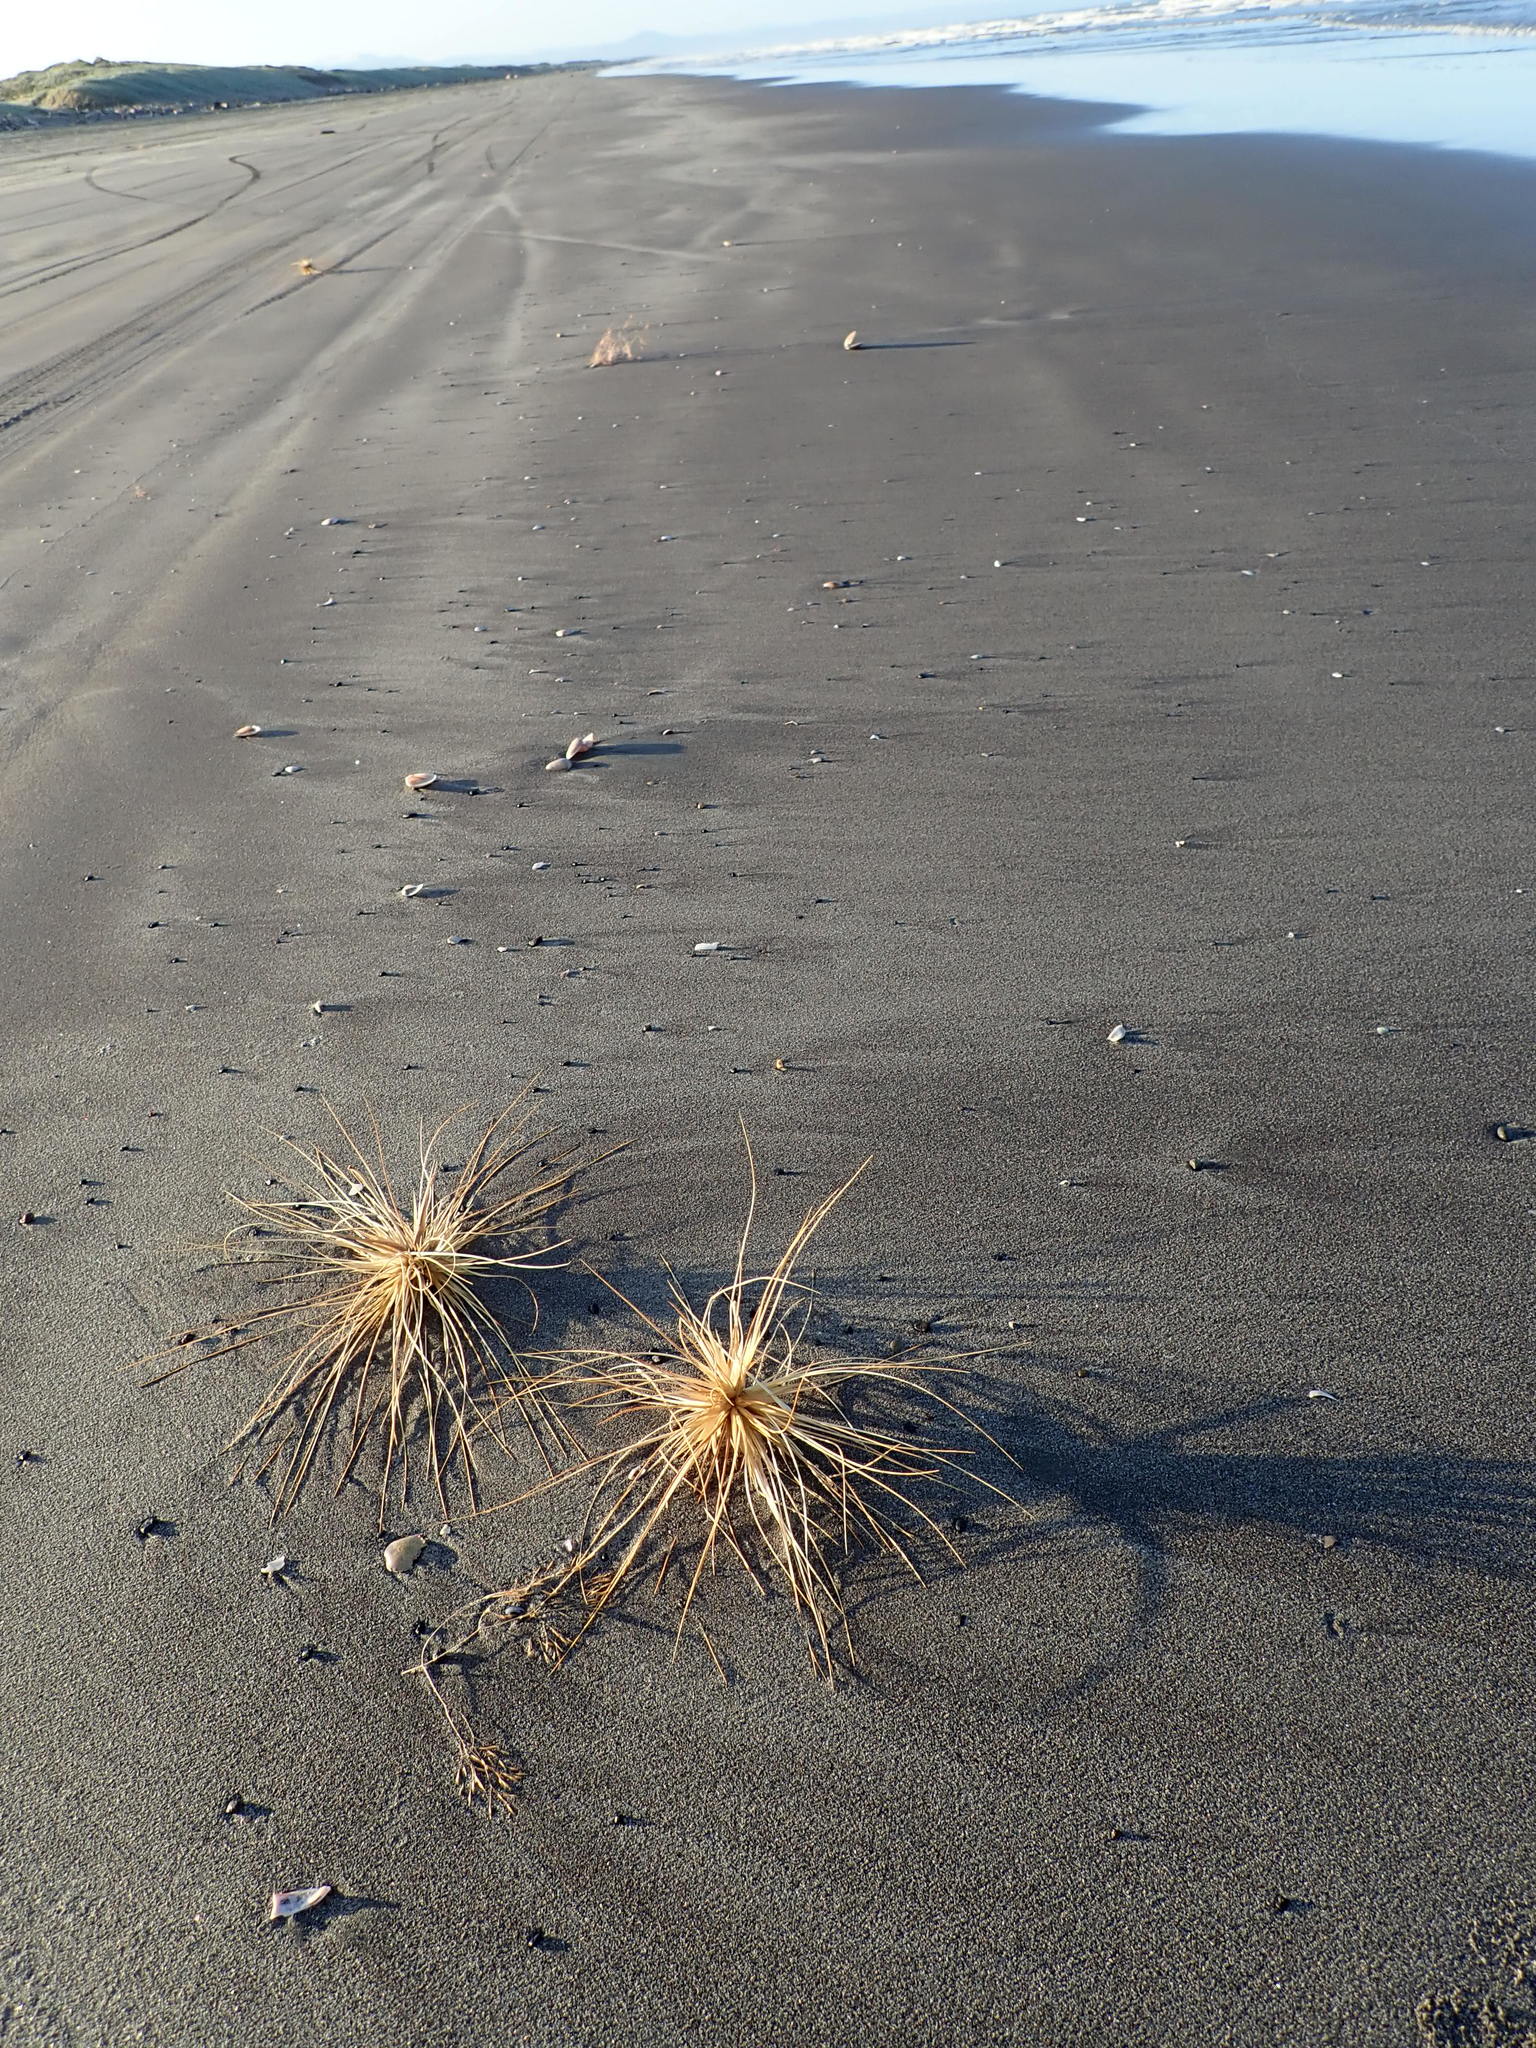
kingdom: Plantae
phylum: Tracheophyta
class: Liliopsida
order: Poales
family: Poaceae
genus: Spinifex
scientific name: Spinifex sericeus
